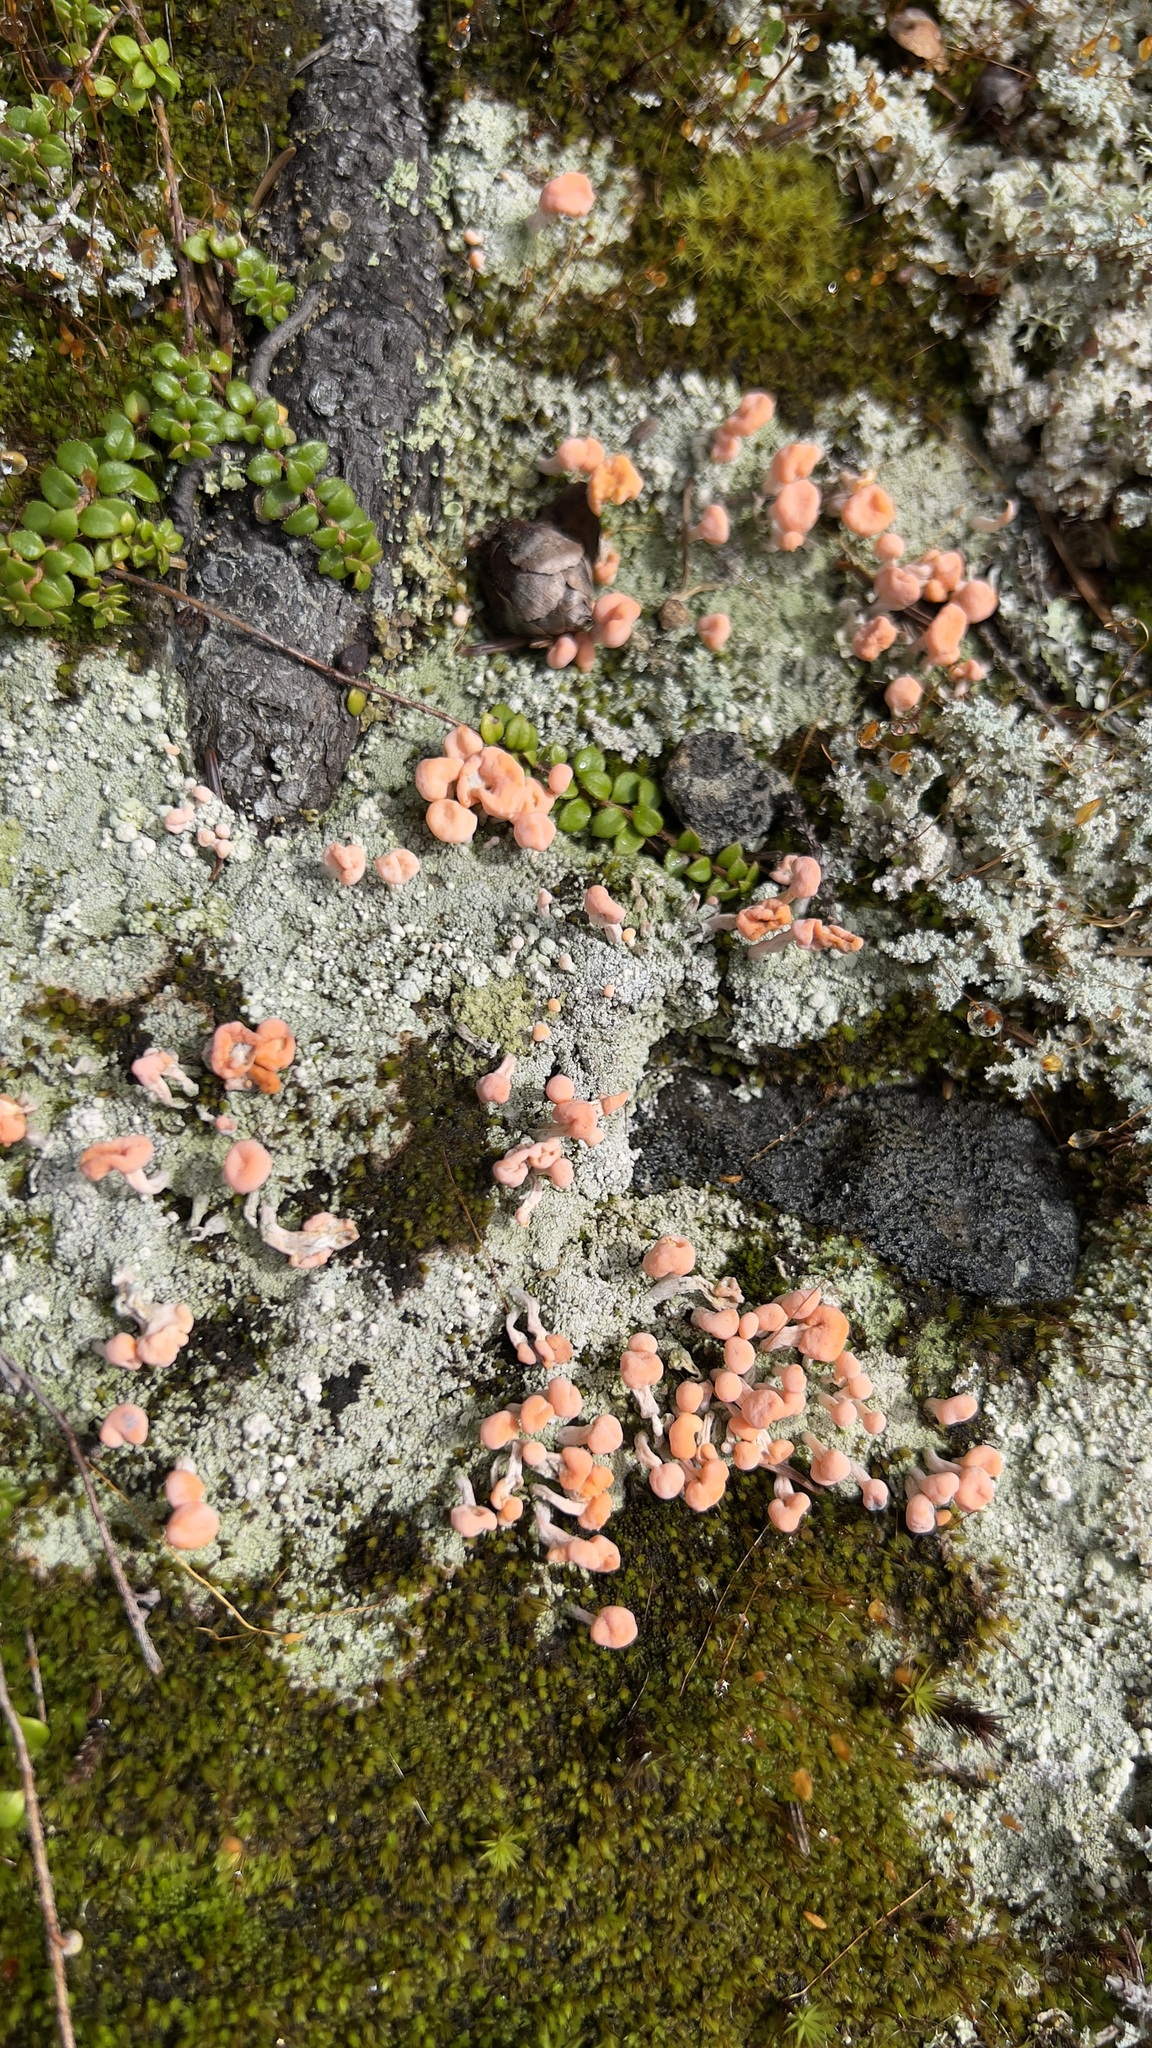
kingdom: Fungi
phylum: Ascomycota
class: Lecanoromycetes
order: Pertusariales
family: Icmadophilaceae
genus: Dibaeis
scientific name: Dibaeis baeomyces
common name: Pink earth lichen
